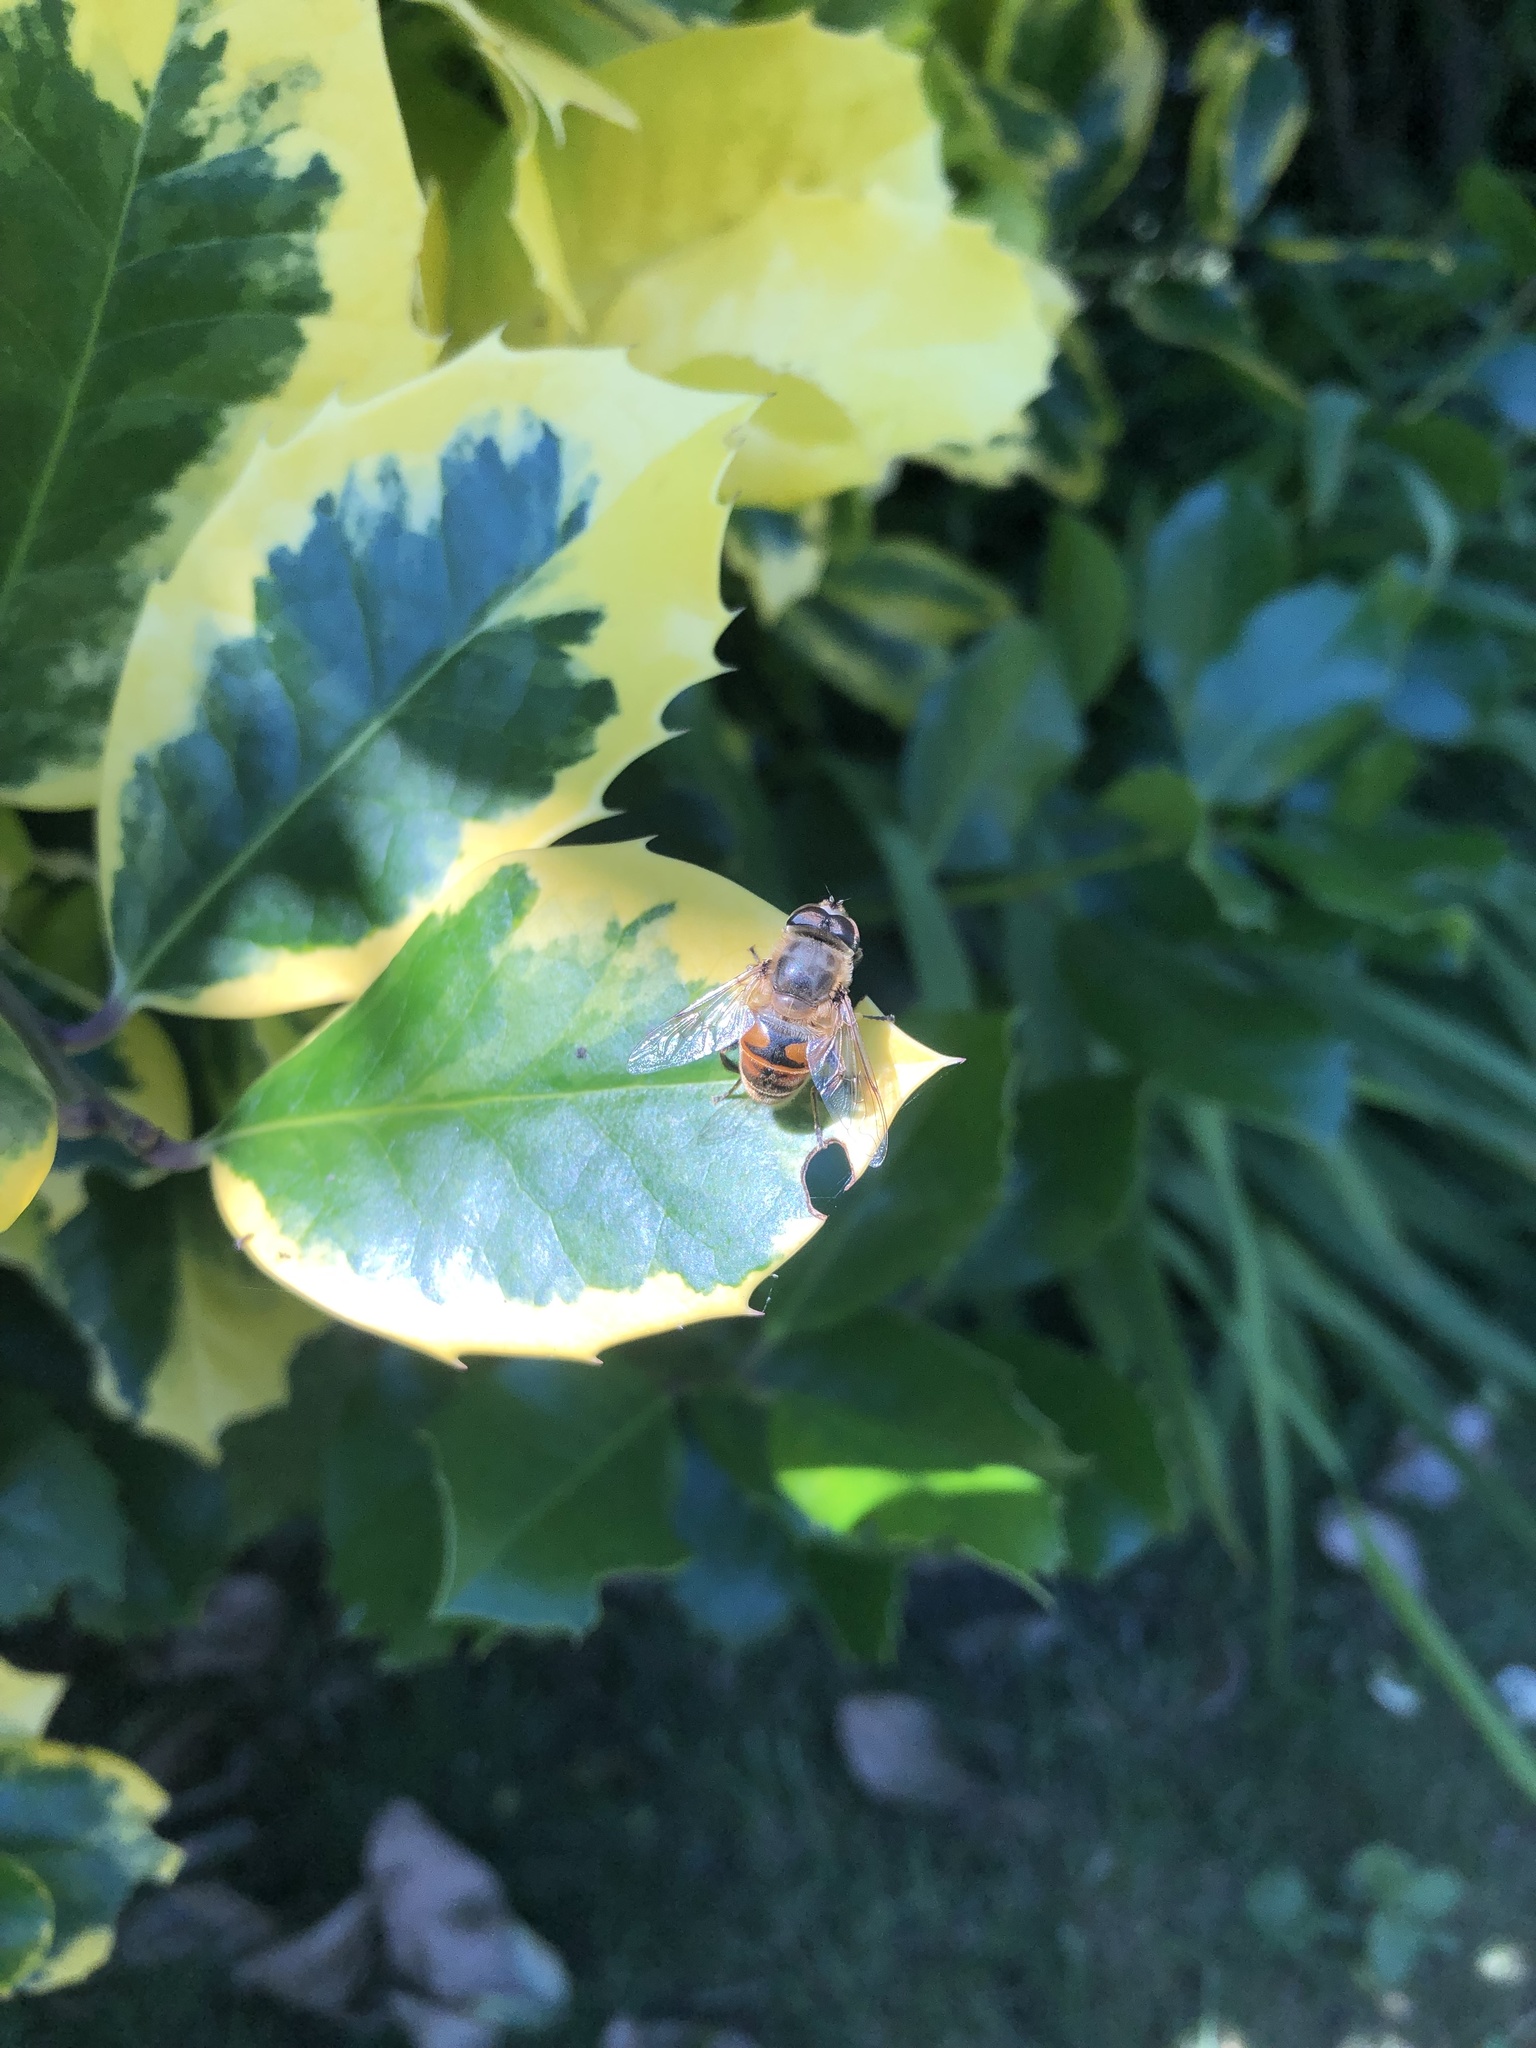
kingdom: Animalia
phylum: Arthropoda
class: Insecta
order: Diptera
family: Syrphidae
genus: Eristalis
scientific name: Eristalis tenax
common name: Drone fly
